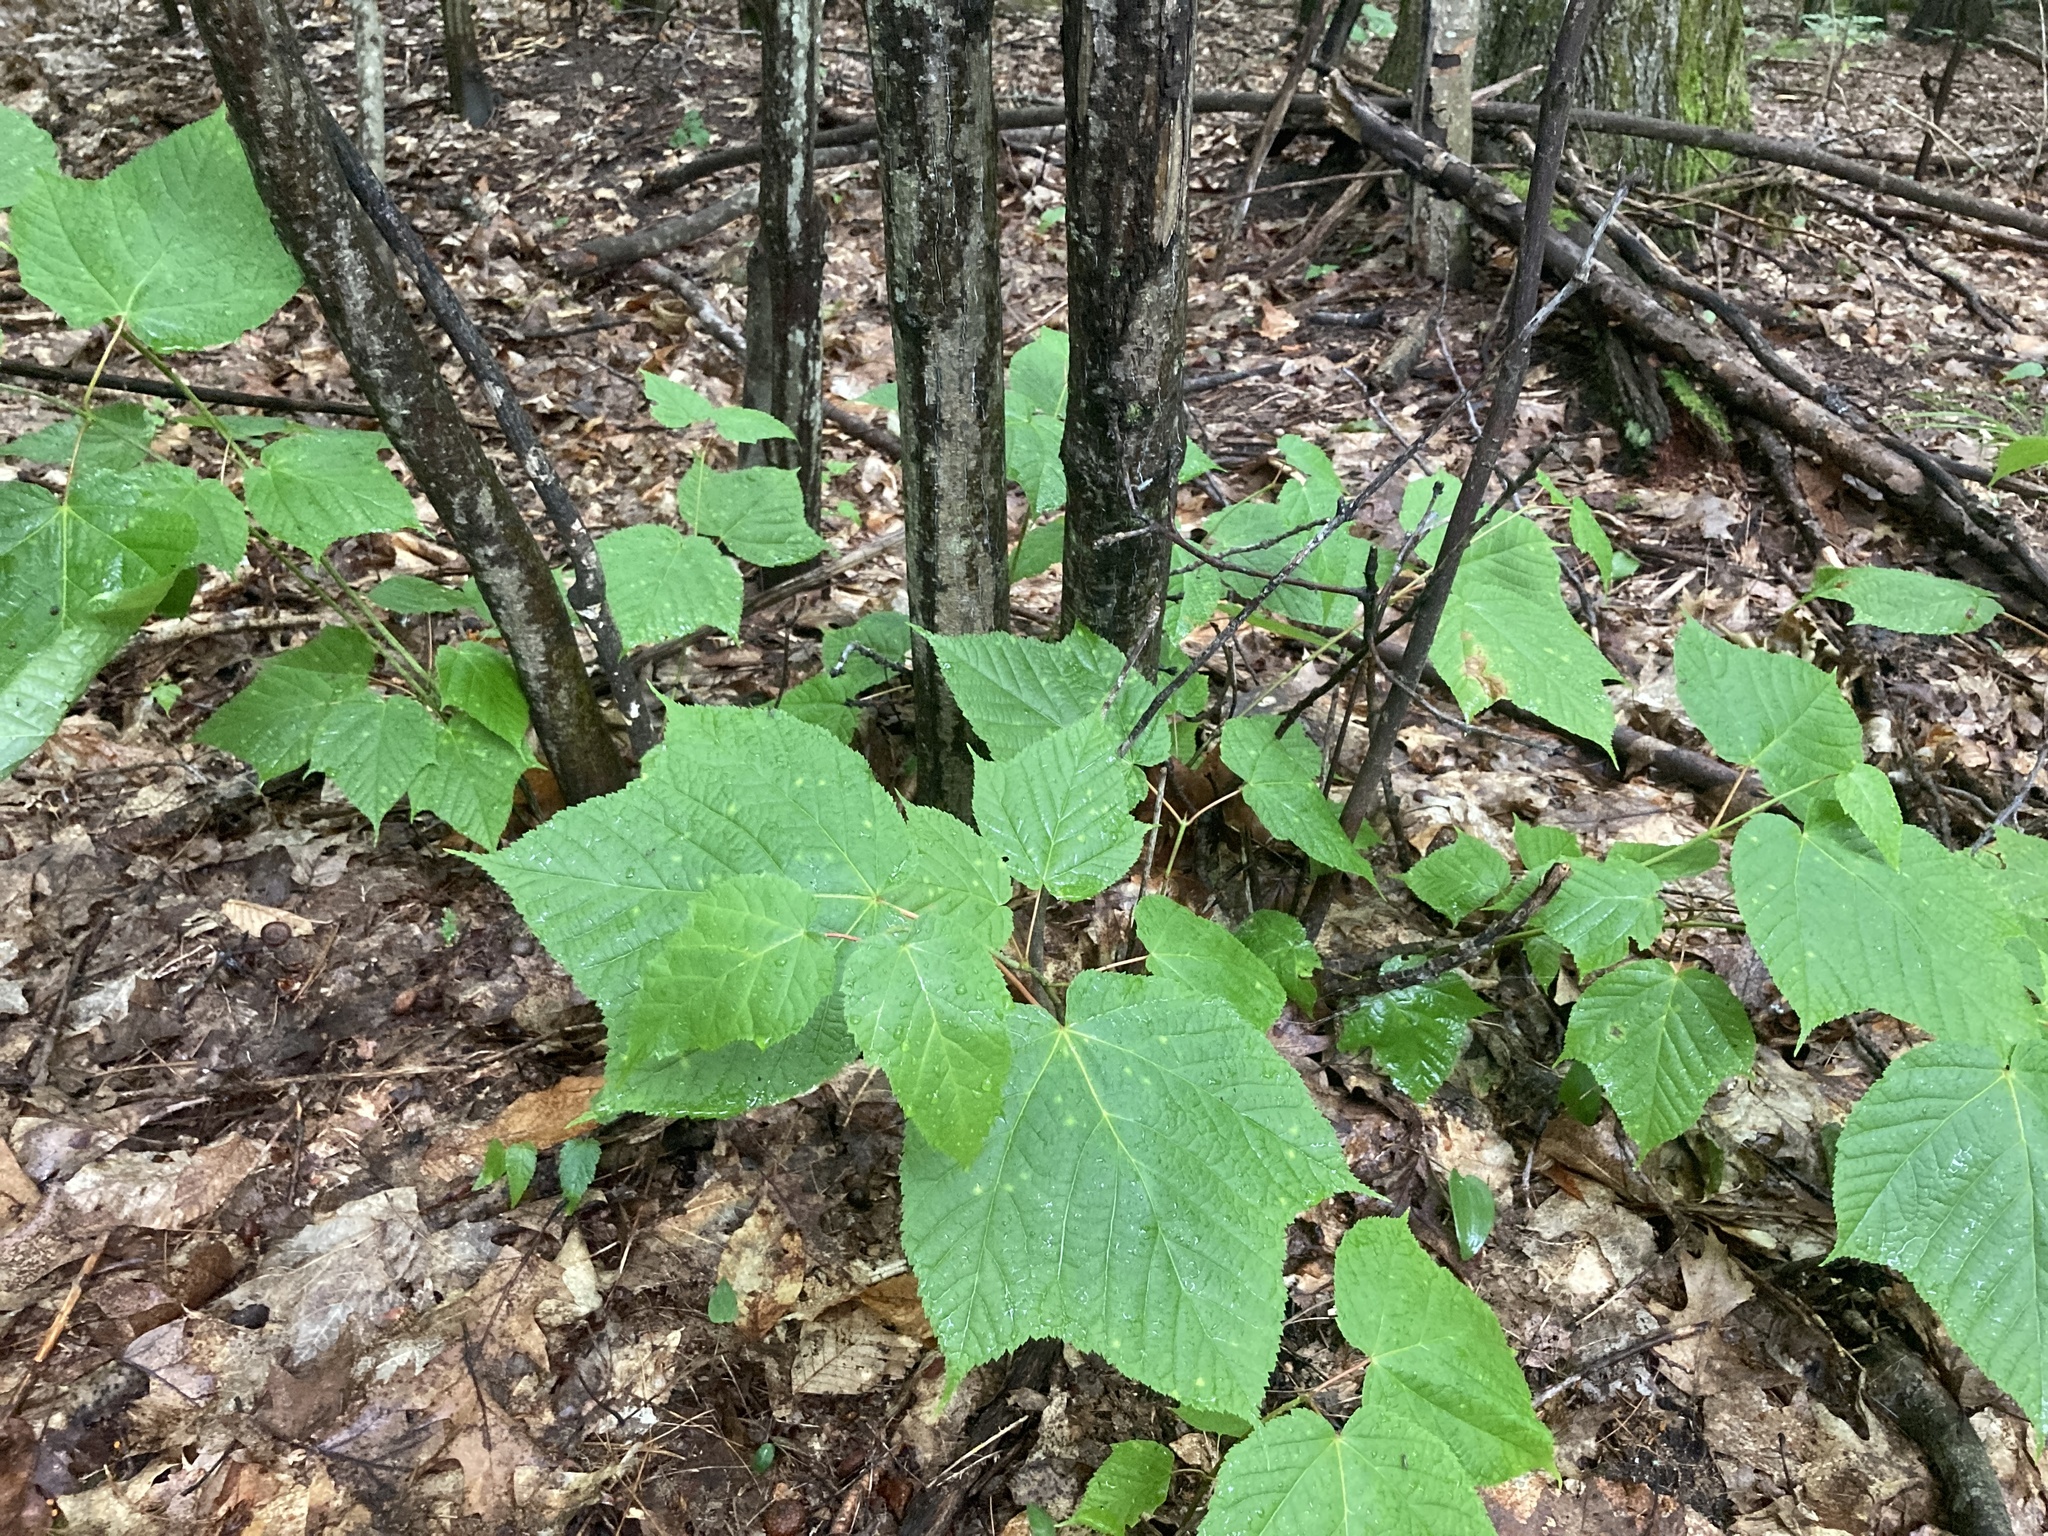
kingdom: Plantae
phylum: Tracheophyta
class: Magnoliopsida
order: Sapindales
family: Sapindaceae
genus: Acer
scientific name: Acer pensylvanicum
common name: Moosewood
